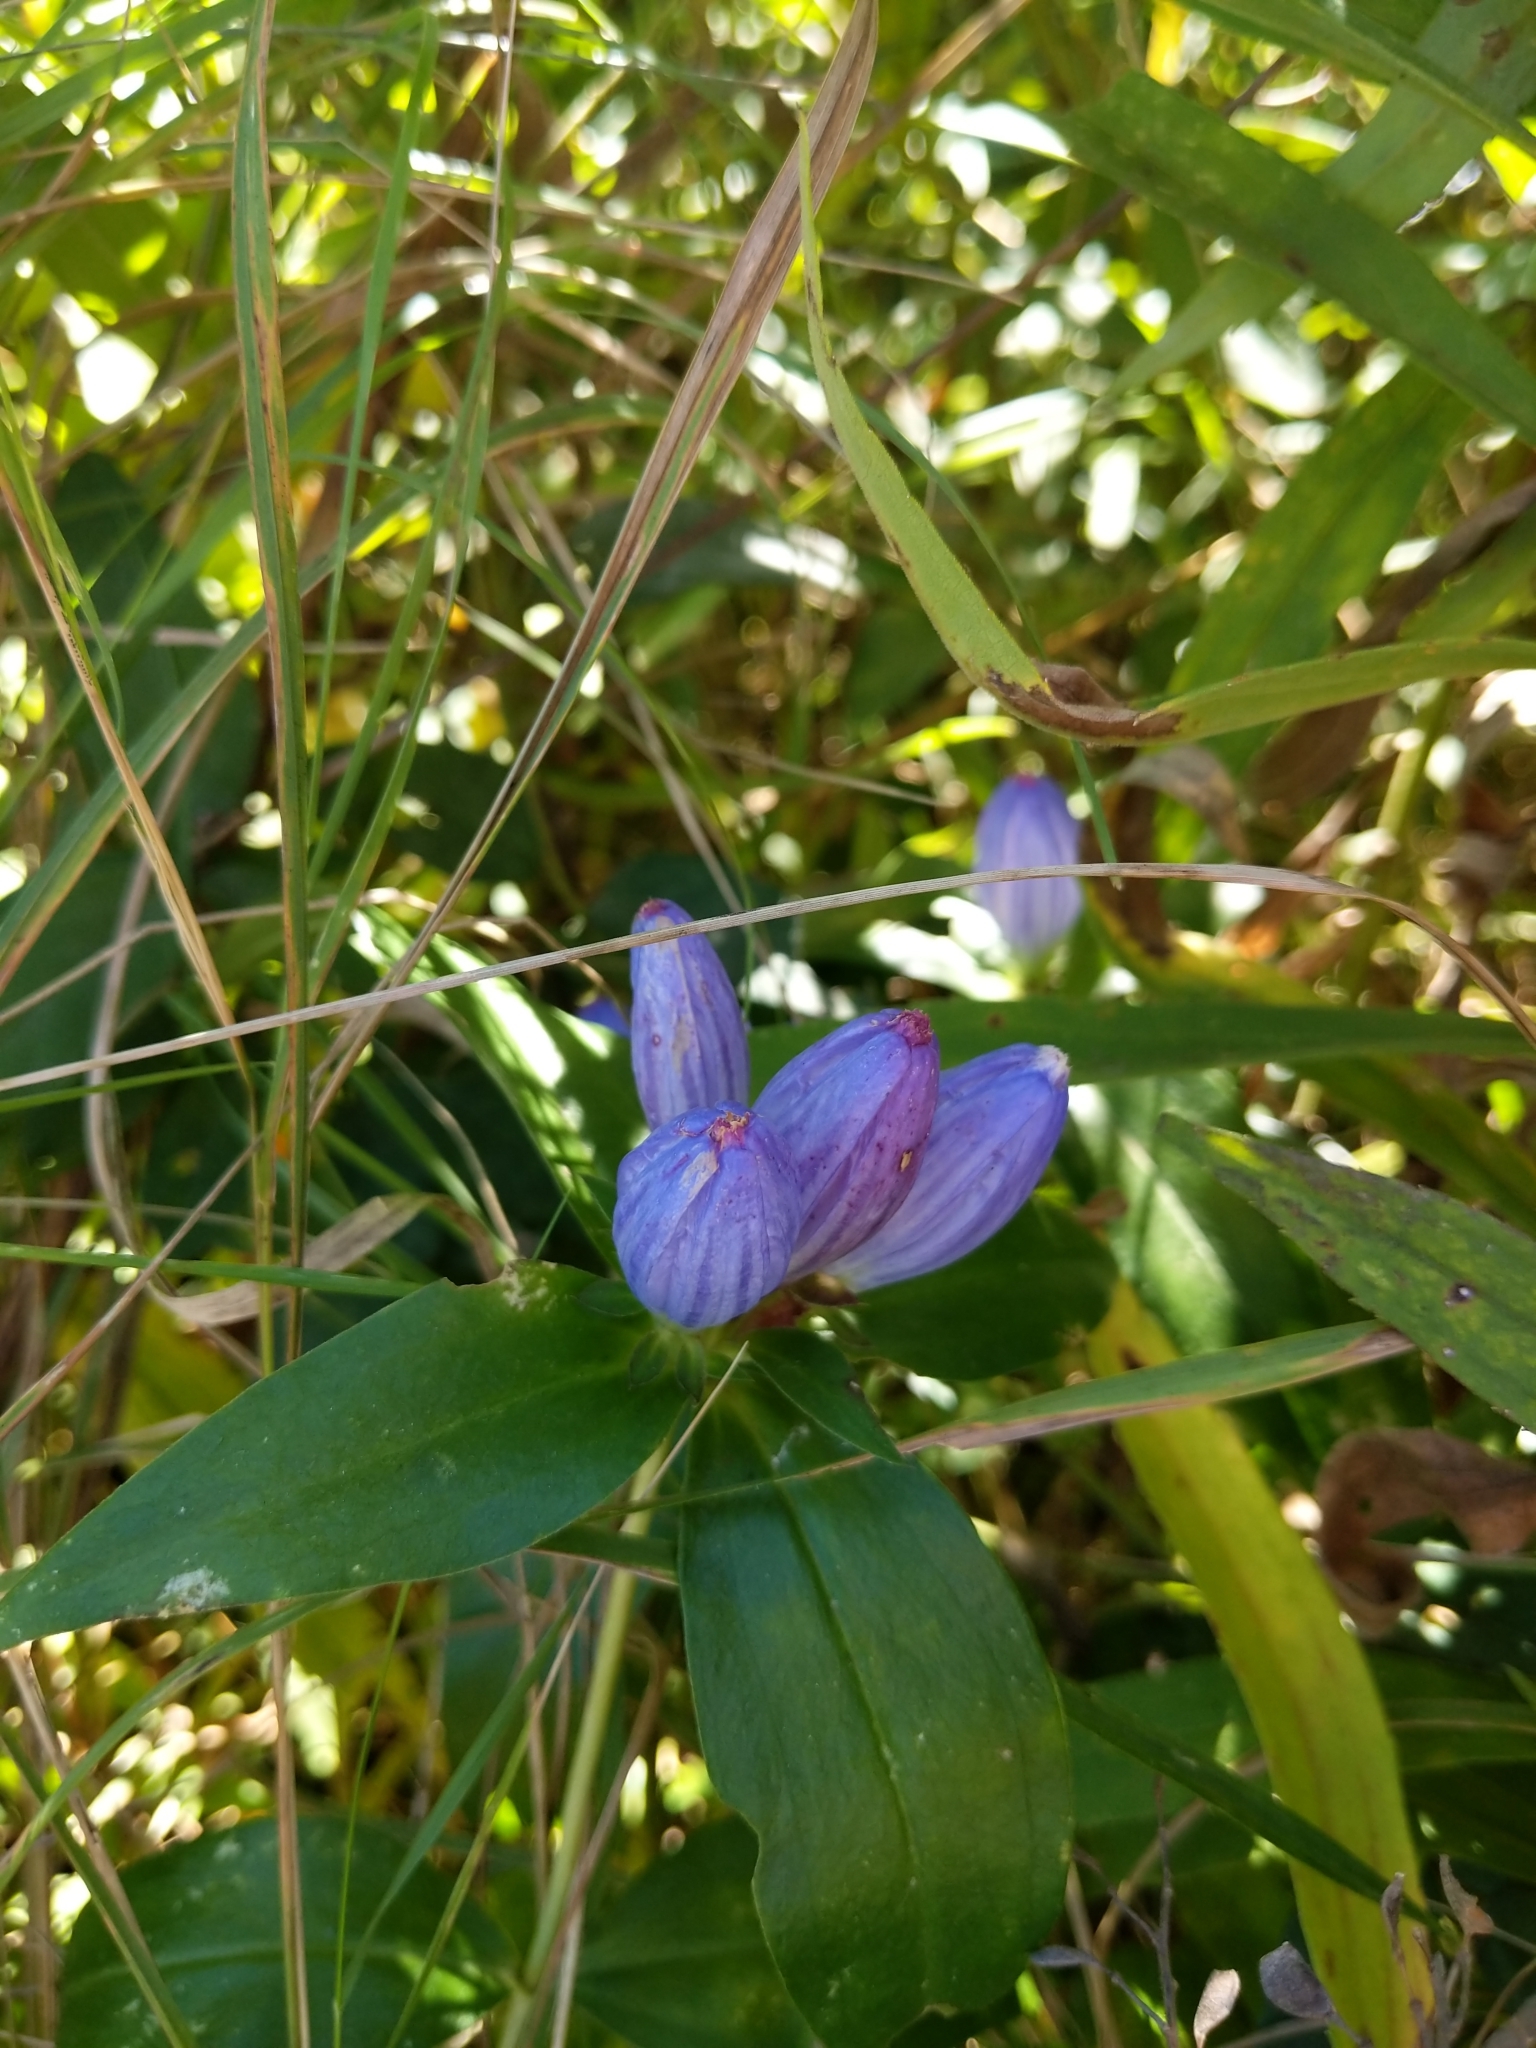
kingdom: Plantae
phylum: Tracheophyta
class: Magnoliopsida
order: Gentianales
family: Gentianaceae
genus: Gentiana
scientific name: Gentiana andrewsii
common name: Bottle gentian
